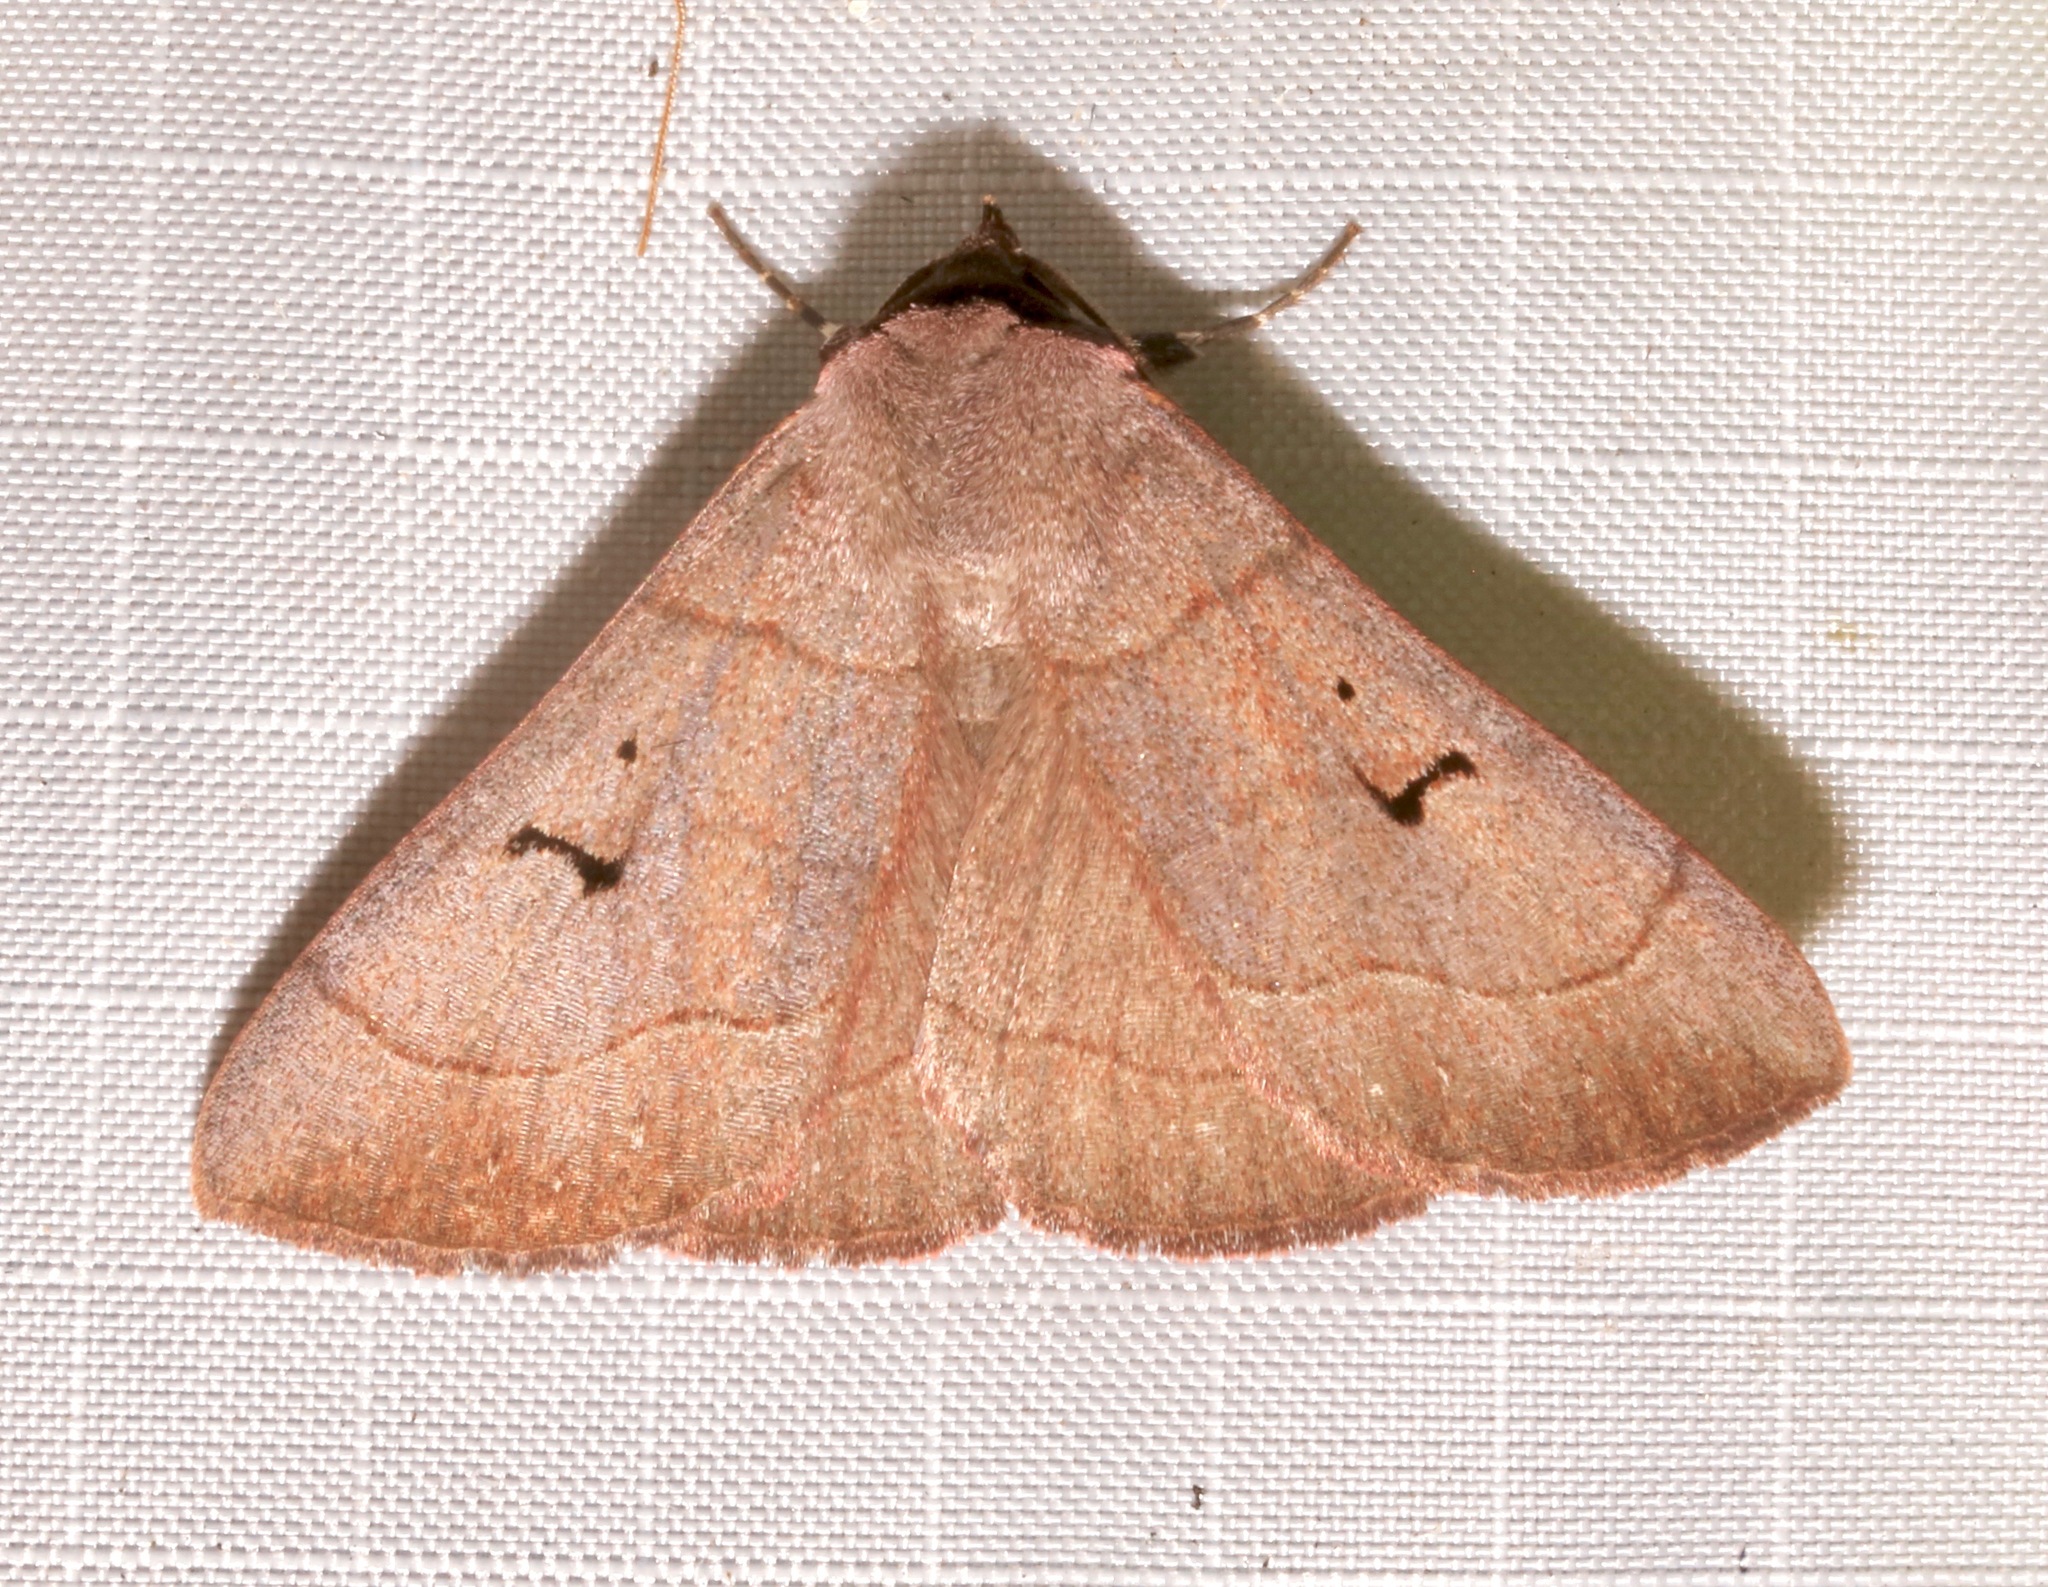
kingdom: Animalia
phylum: Arthropoda
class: Insecta
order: Lepidoptera
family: Erebidae
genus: Panopoda
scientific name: Panopoda carneicosta
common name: Brown panopoda moth
